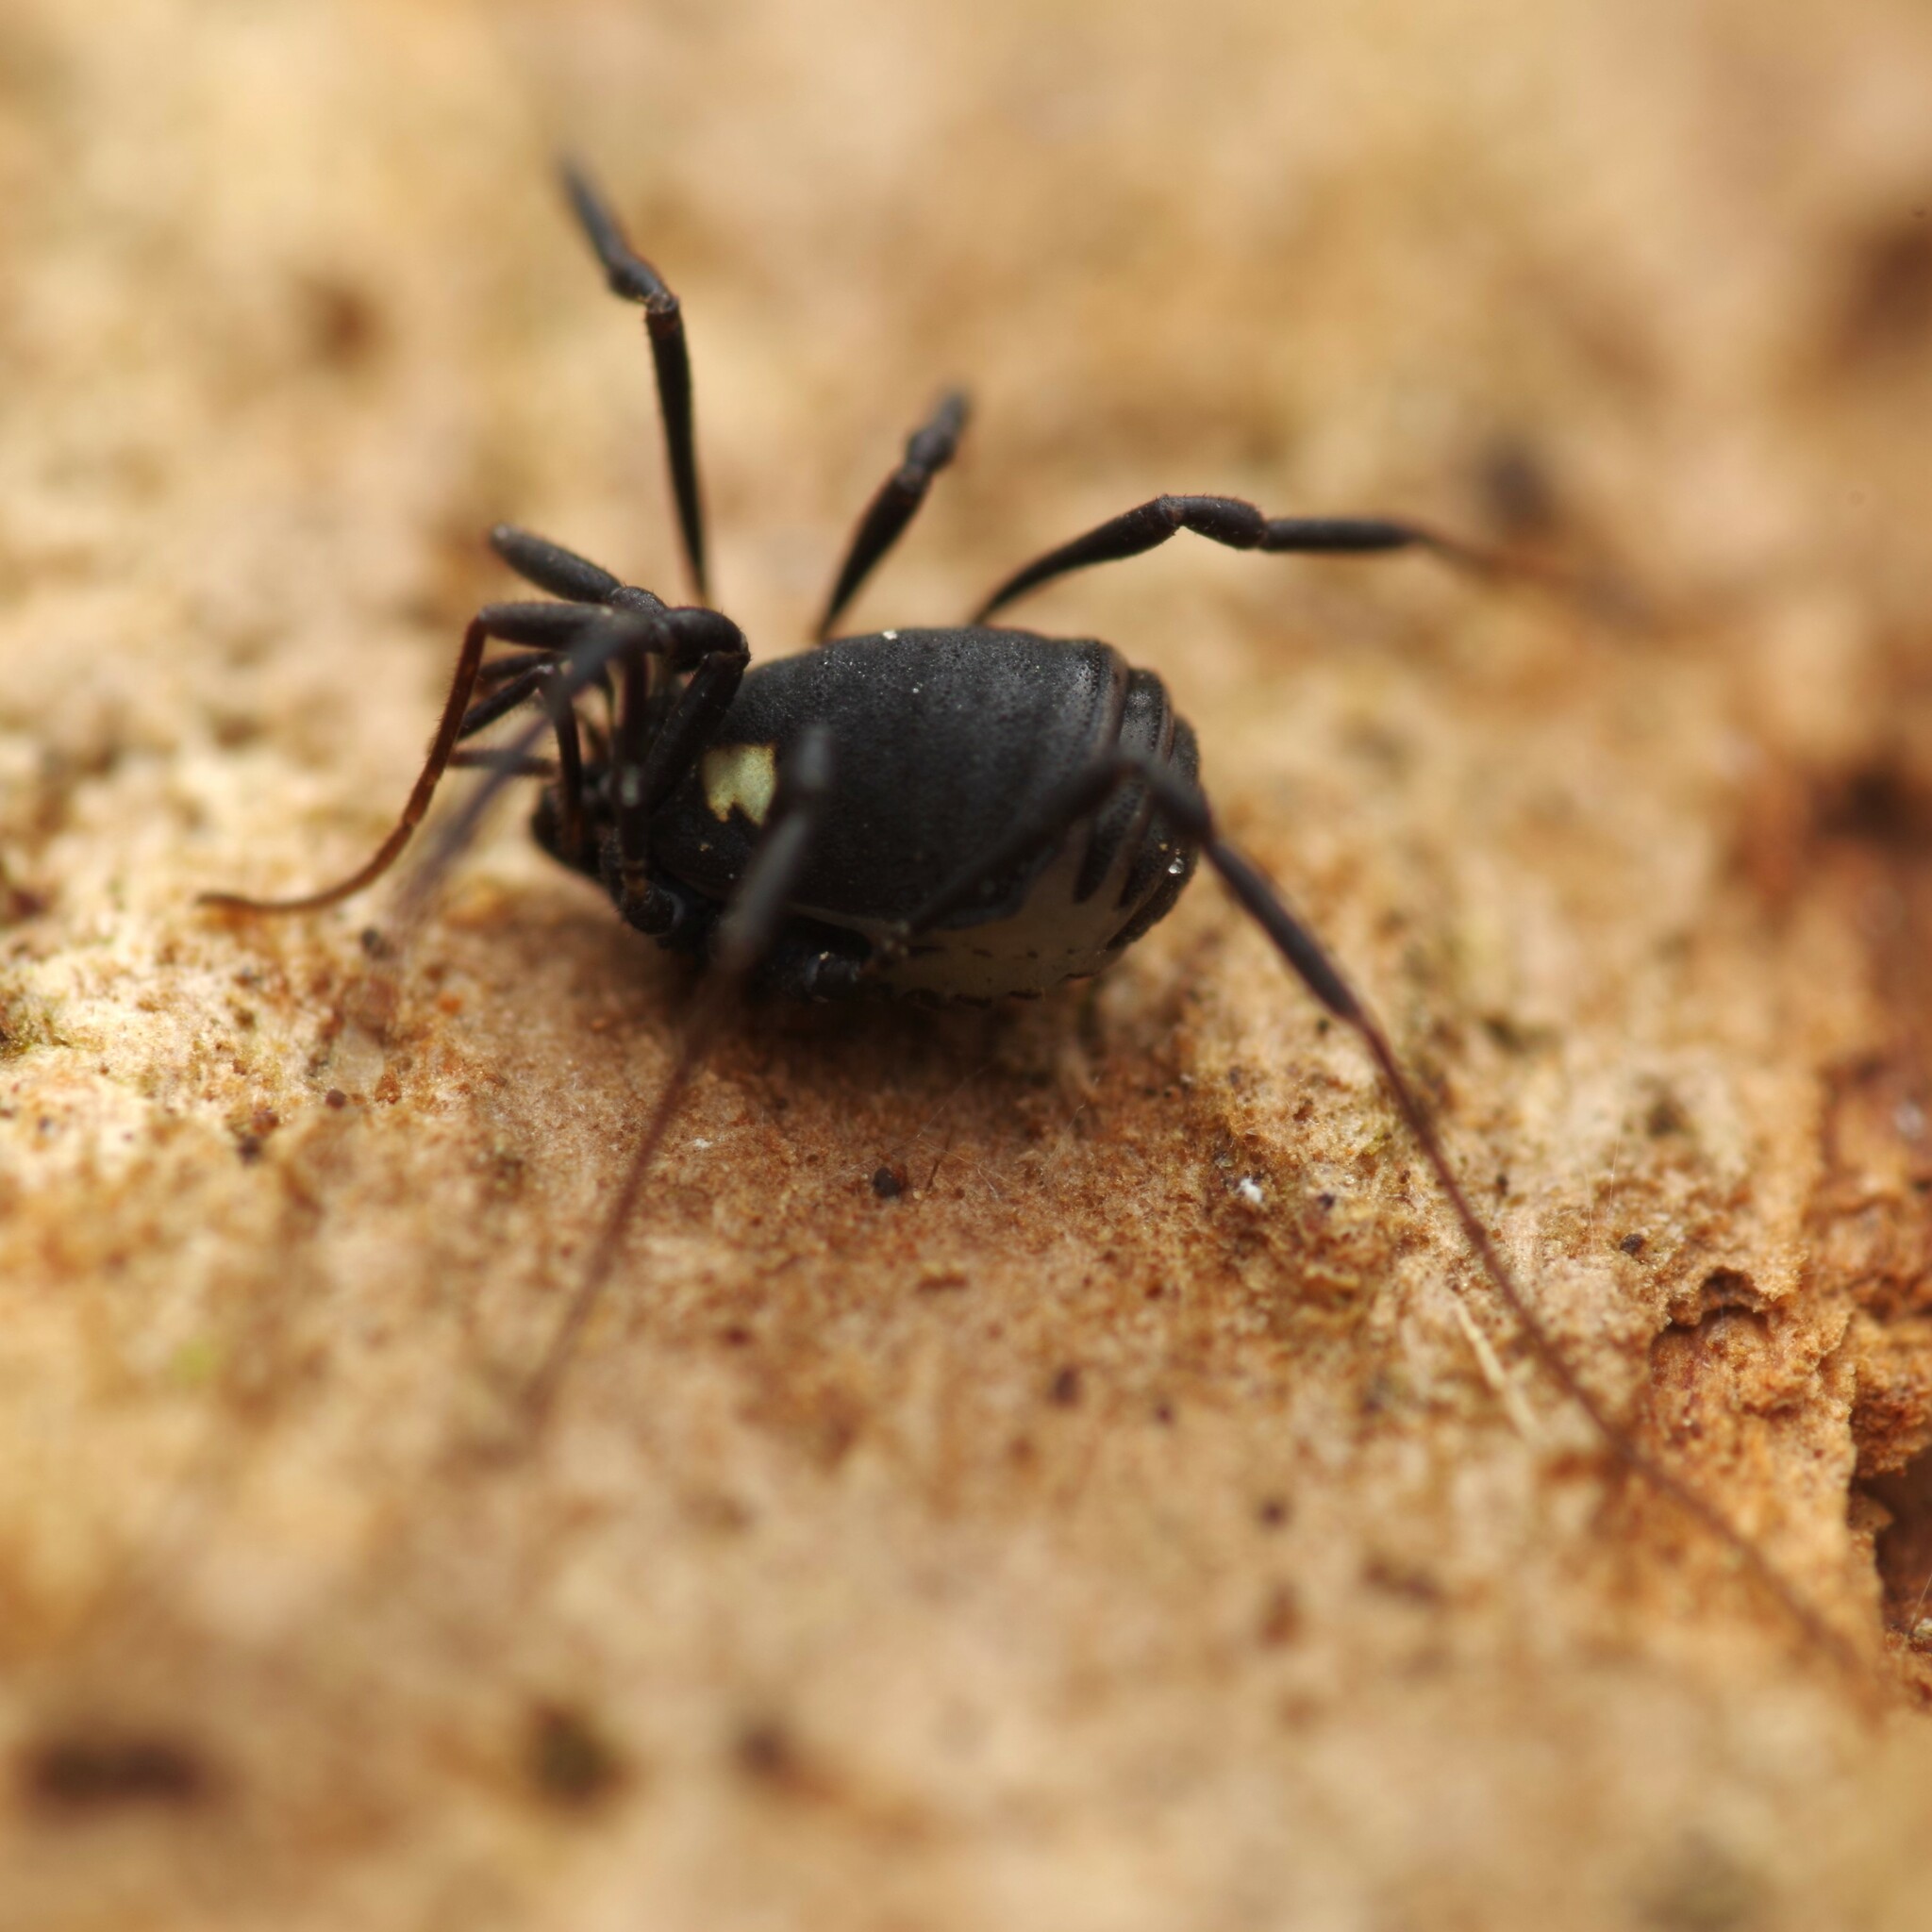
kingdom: Animalia
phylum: Arthropoda
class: Arachnida
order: Opiliones
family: Nemastomatidae
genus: Nemastoma
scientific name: Nemastoma bimaculatum
